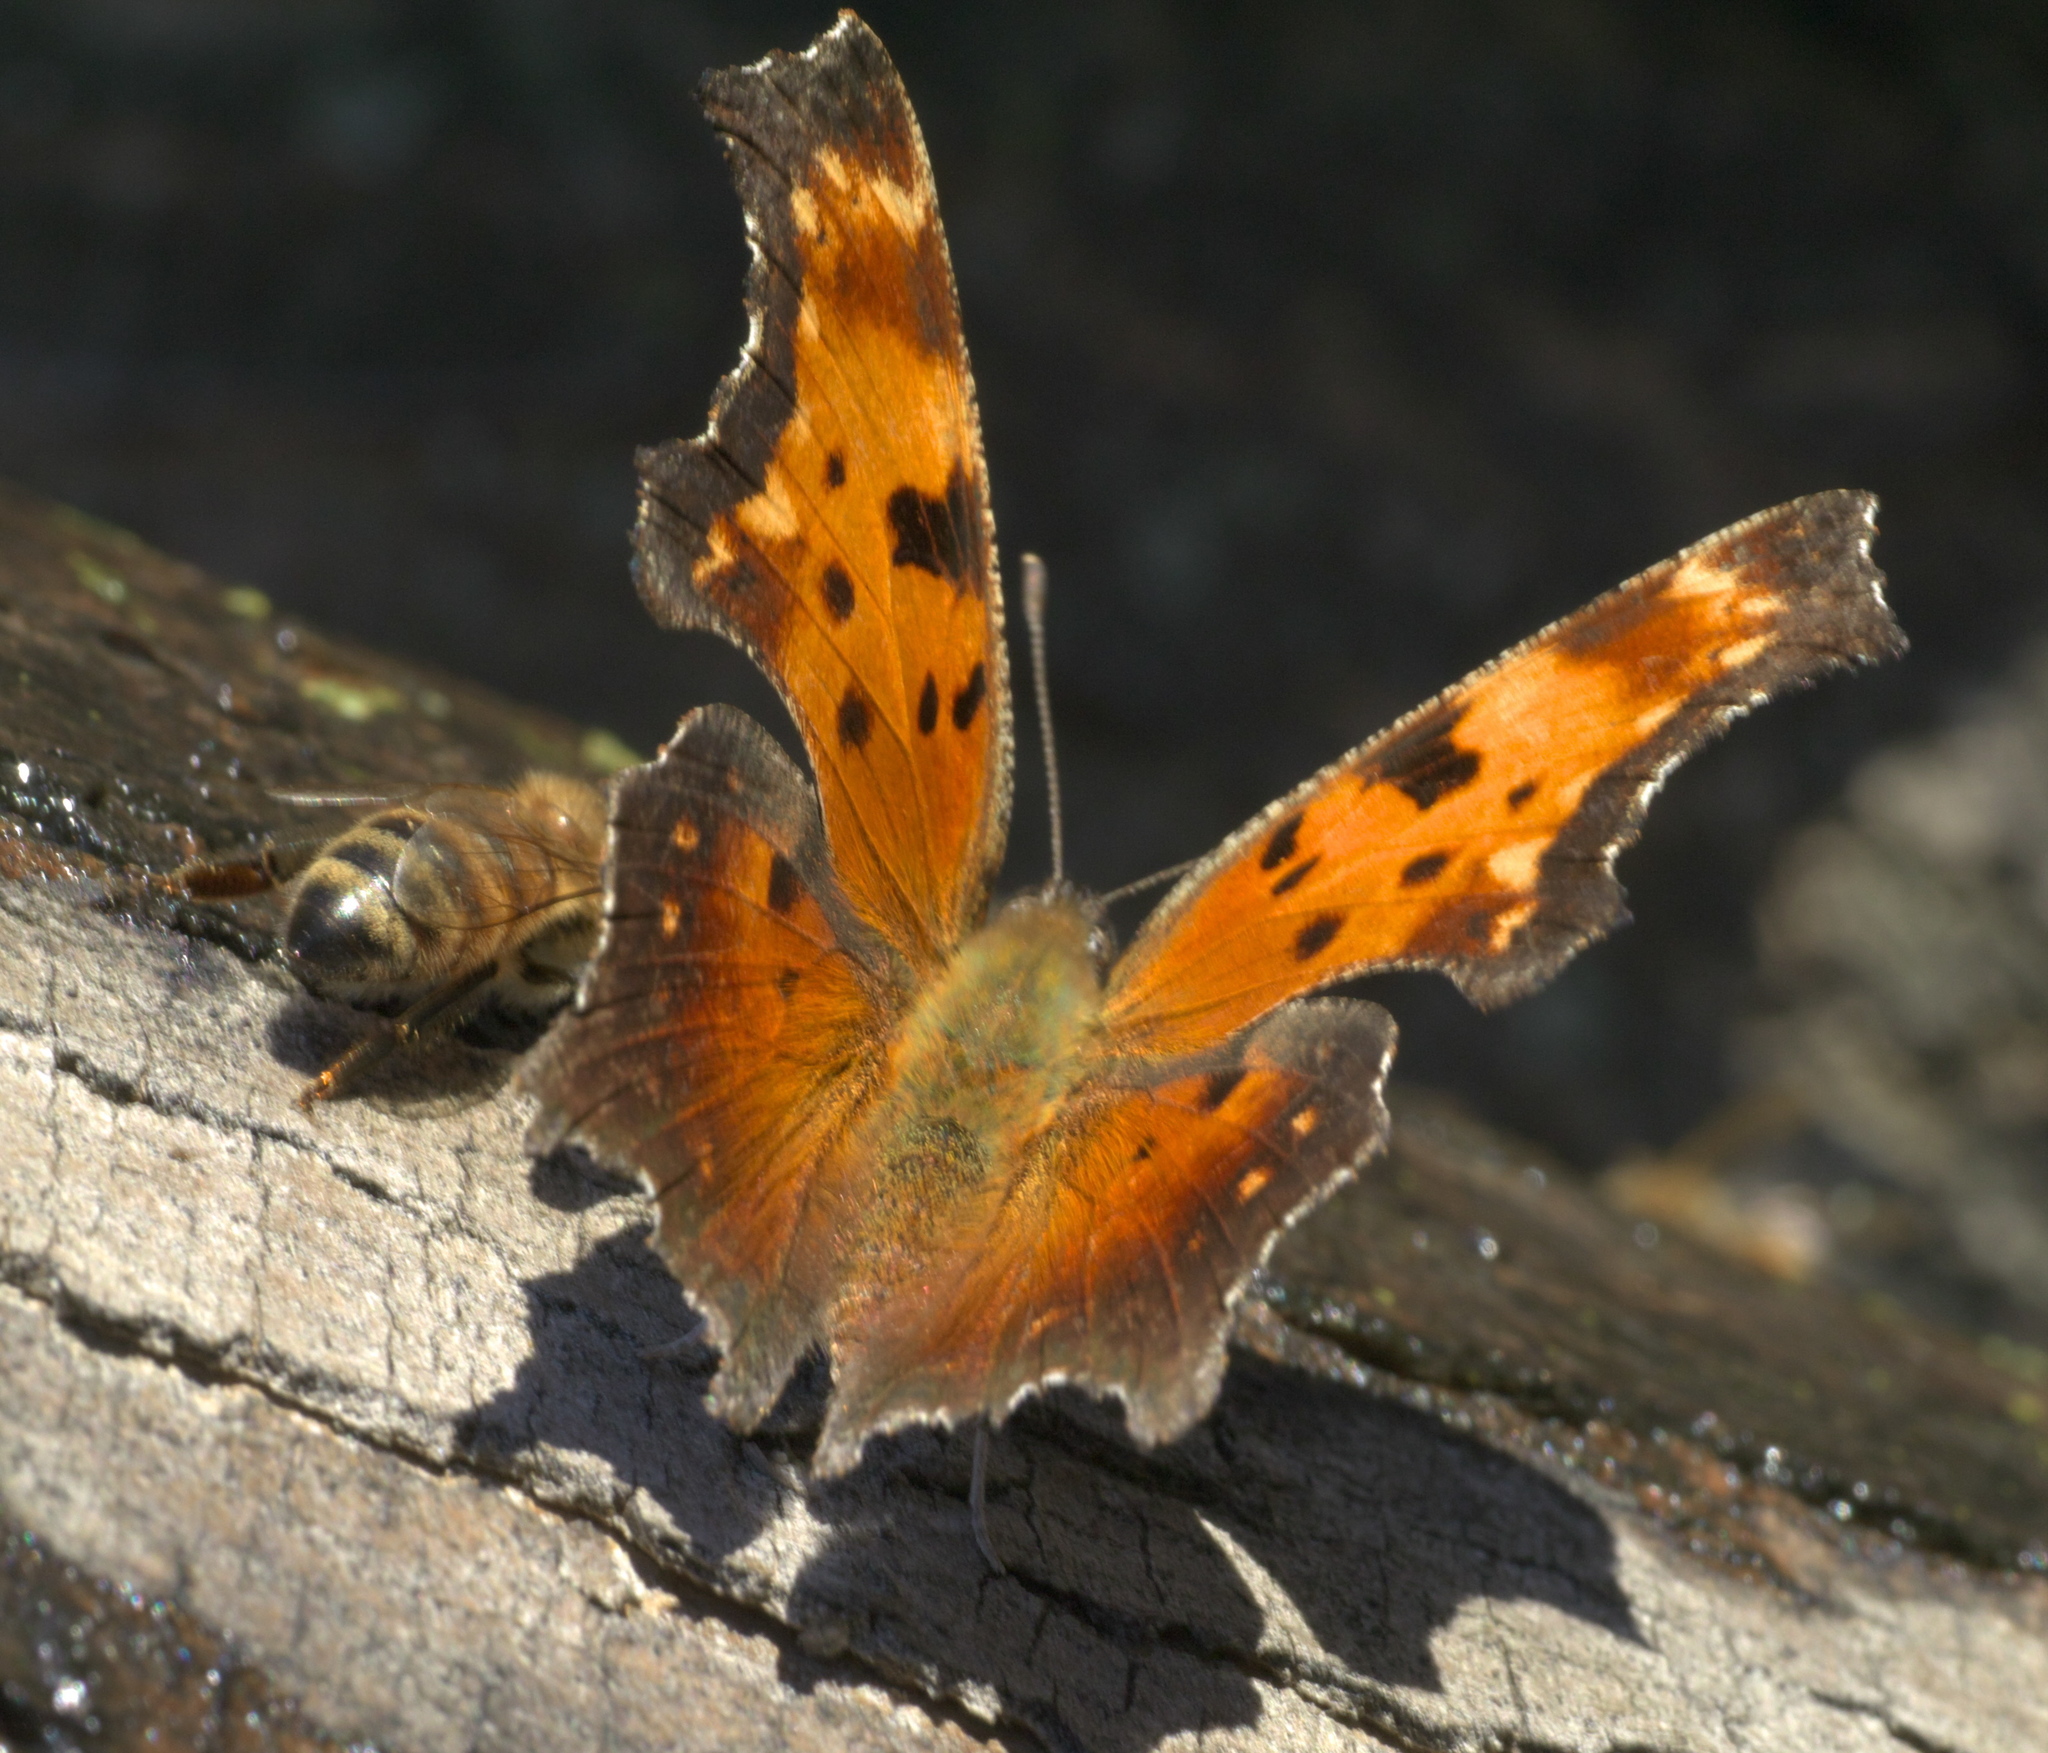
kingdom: Animalia
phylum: Arthropoda
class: Insecta
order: Lepidoptera
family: Nymphalidae
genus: Polygonia
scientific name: Polygonia progne
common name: Gray comma
